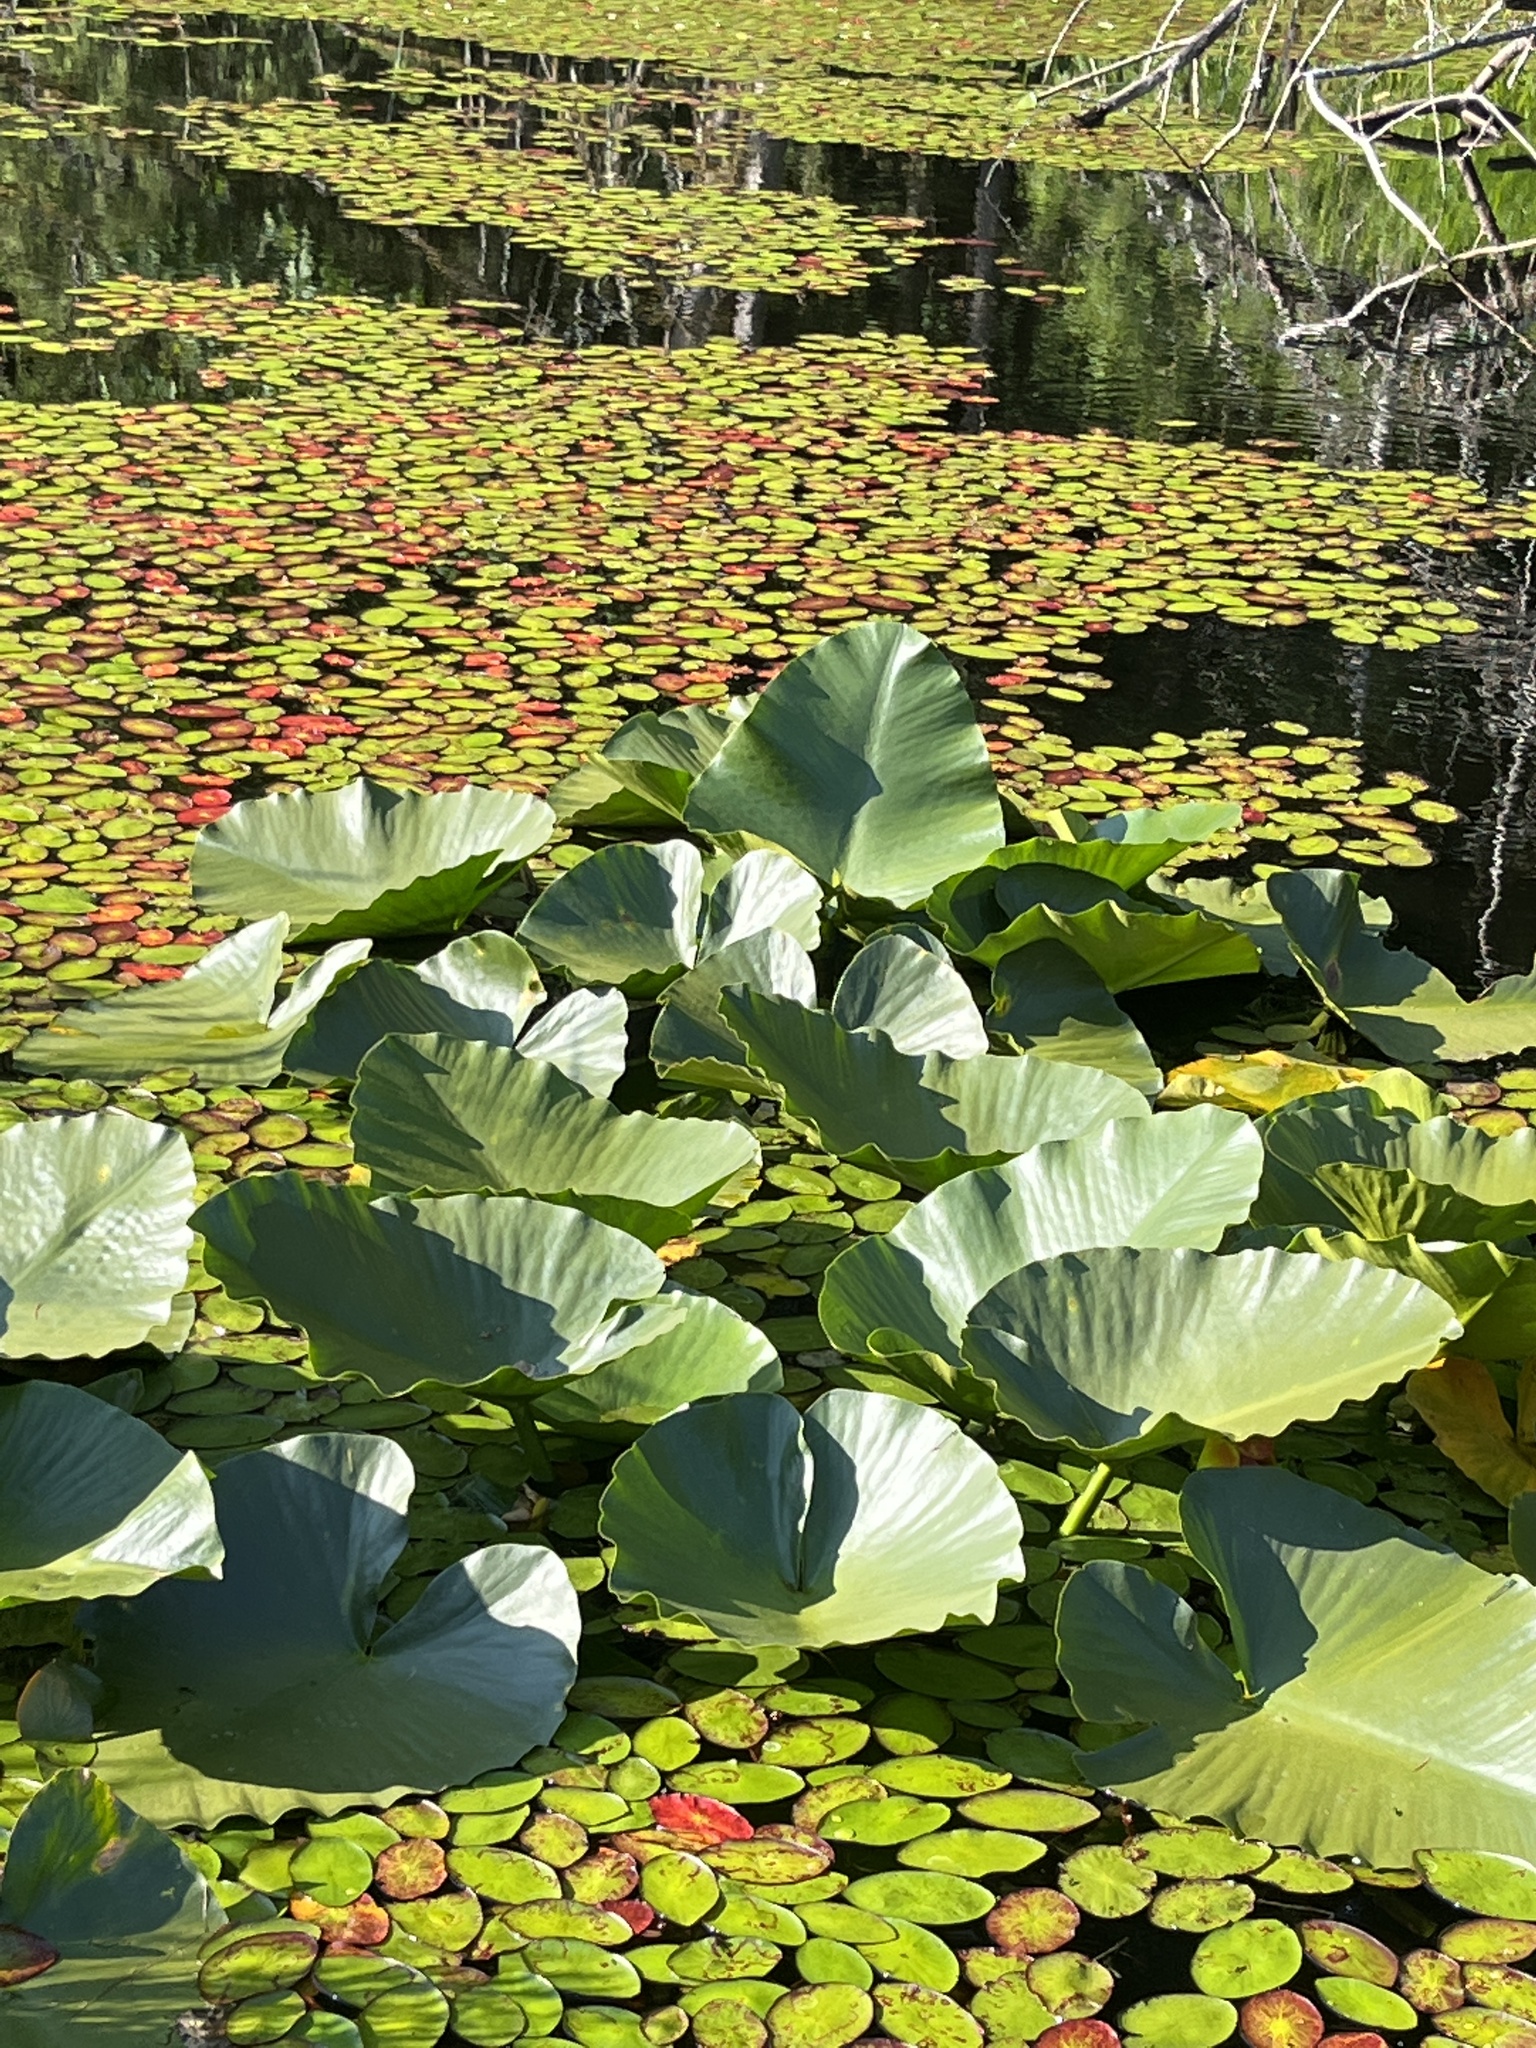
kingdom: Plantae
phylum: Tracheophyta
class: Magnoliopsida
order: Nymphaeales
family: Nymphaeaceae
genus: Nuphar
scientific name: Nuphar polysepala
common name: Rocky mountain cow-lily
